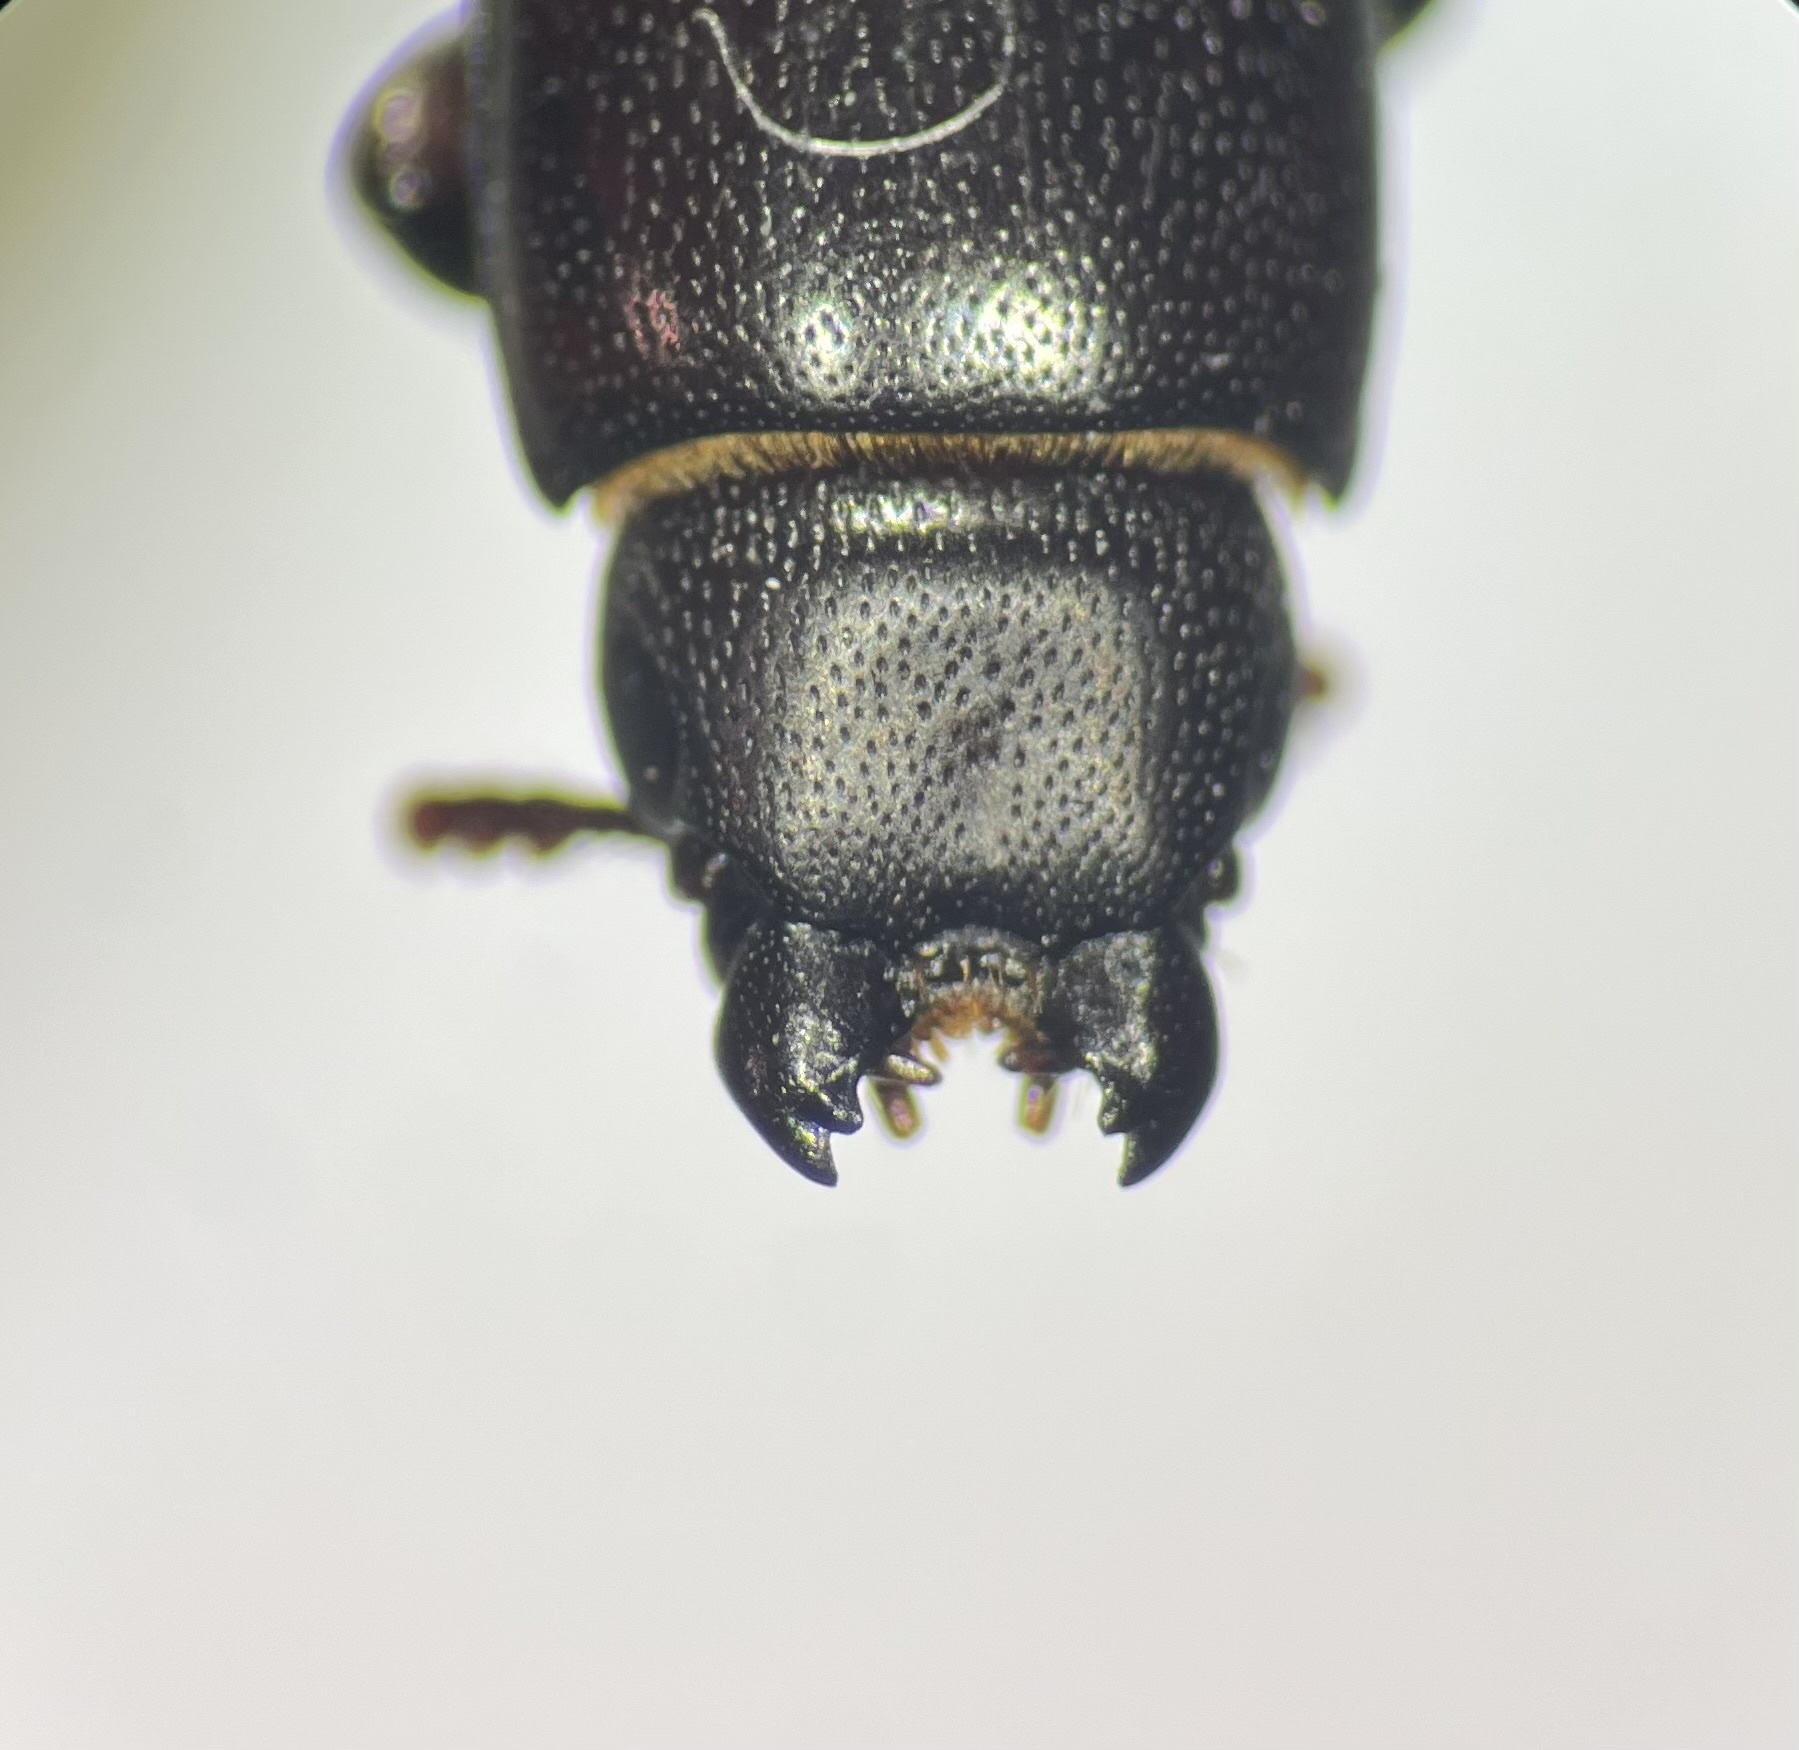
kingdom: Animalia
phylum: Arthropoda
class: Insecta
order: Coleoptera
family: Trogossitidae
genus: Airora
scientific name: Airora cylindrica
